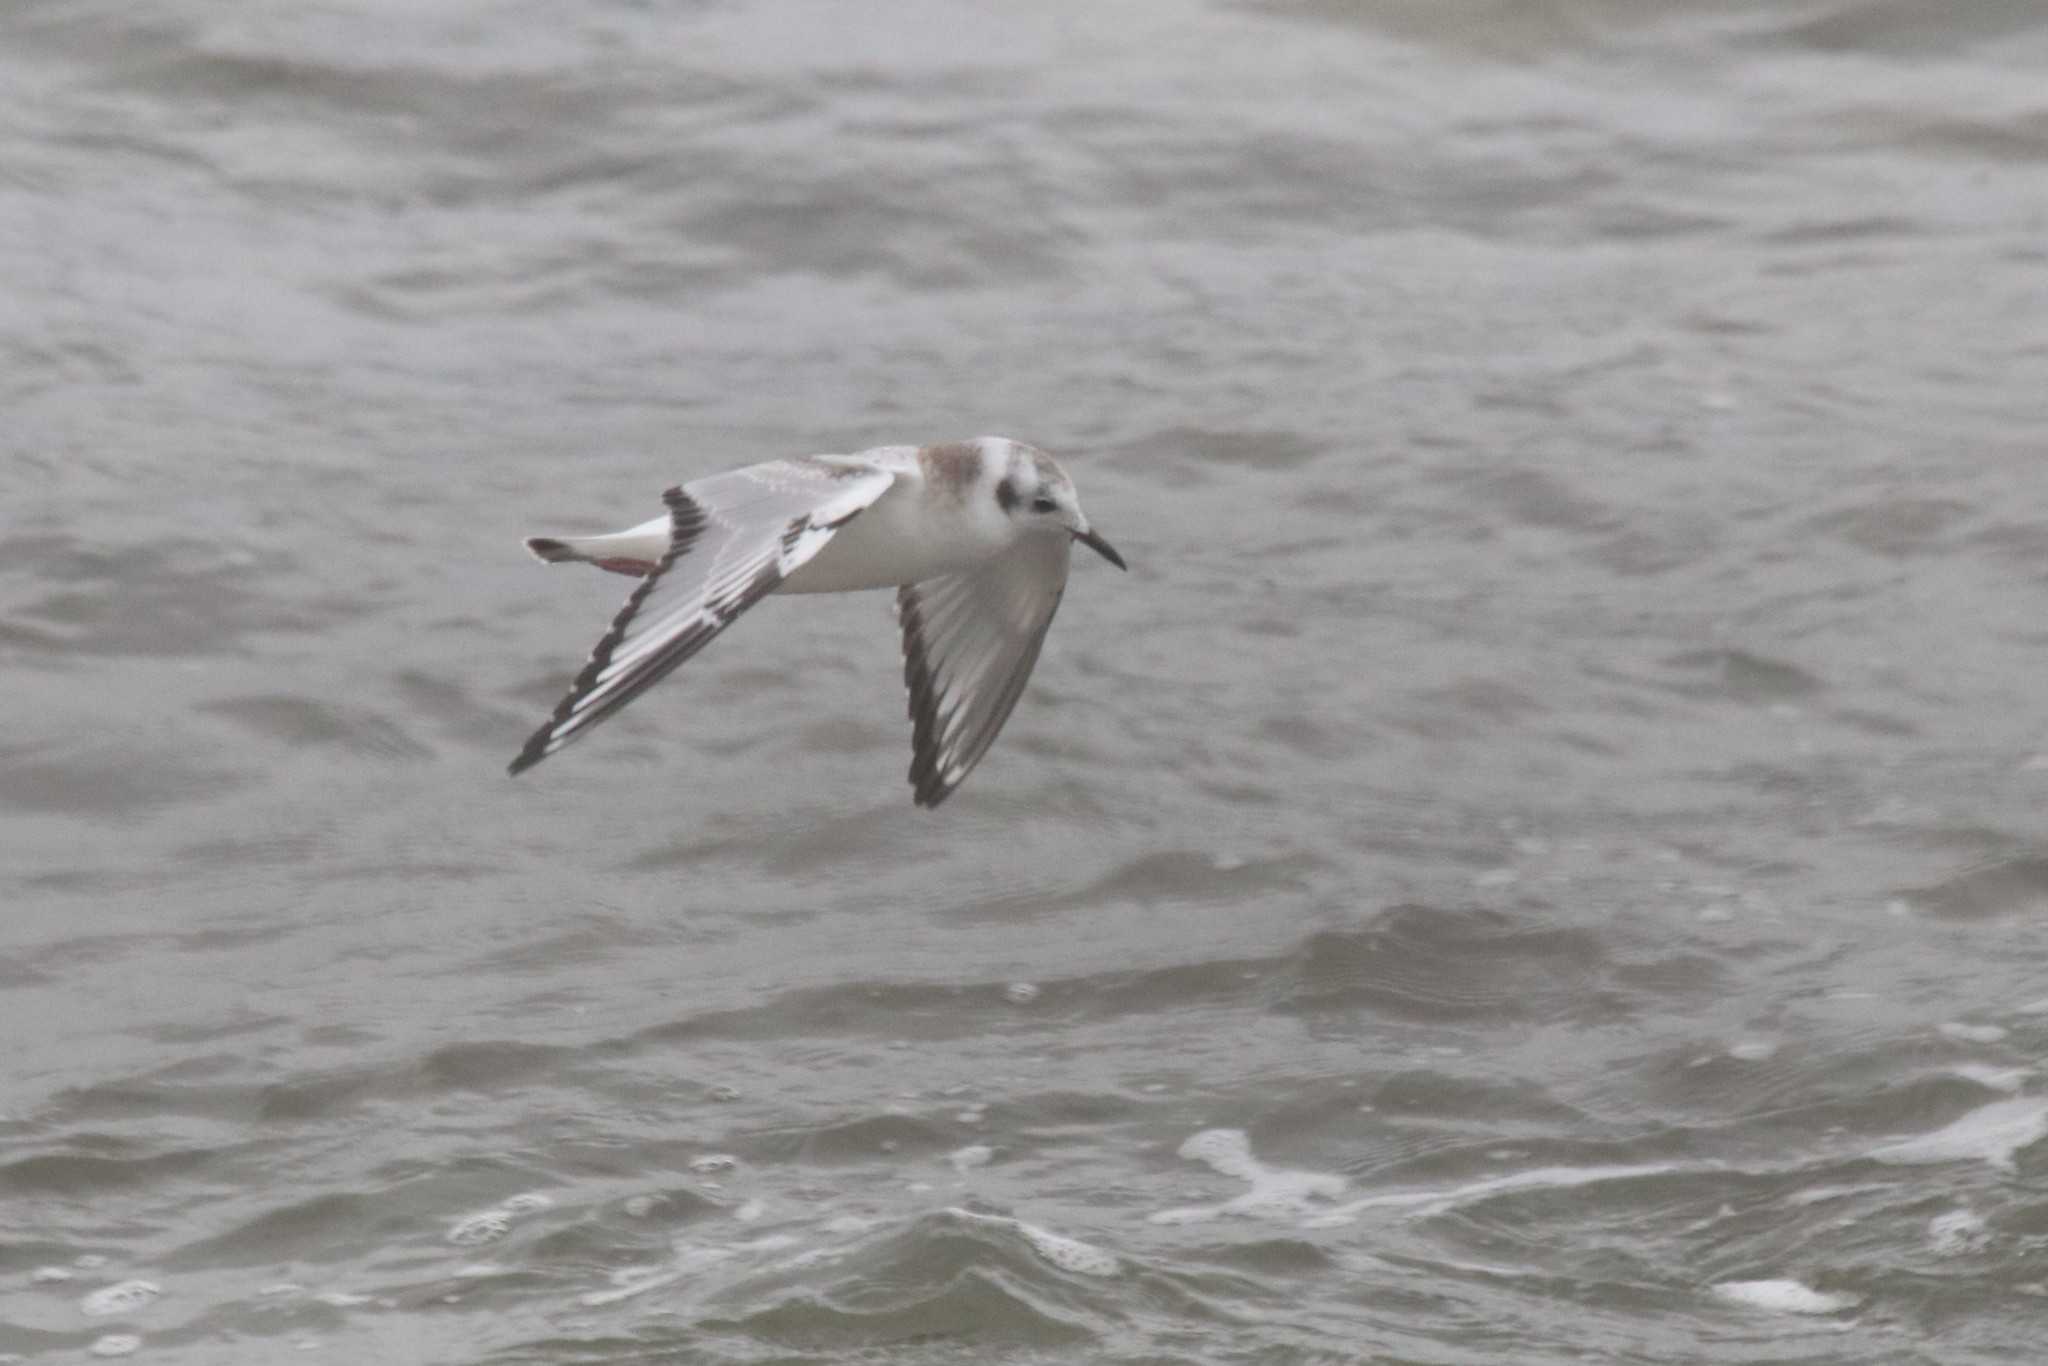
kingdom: Animalia
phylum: Chordata
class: Aves
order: Charadriiformes
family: Laridae
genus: Chroicocephalus
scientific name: Chroicocephalus philadelphia
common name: Bonaparte's gull
